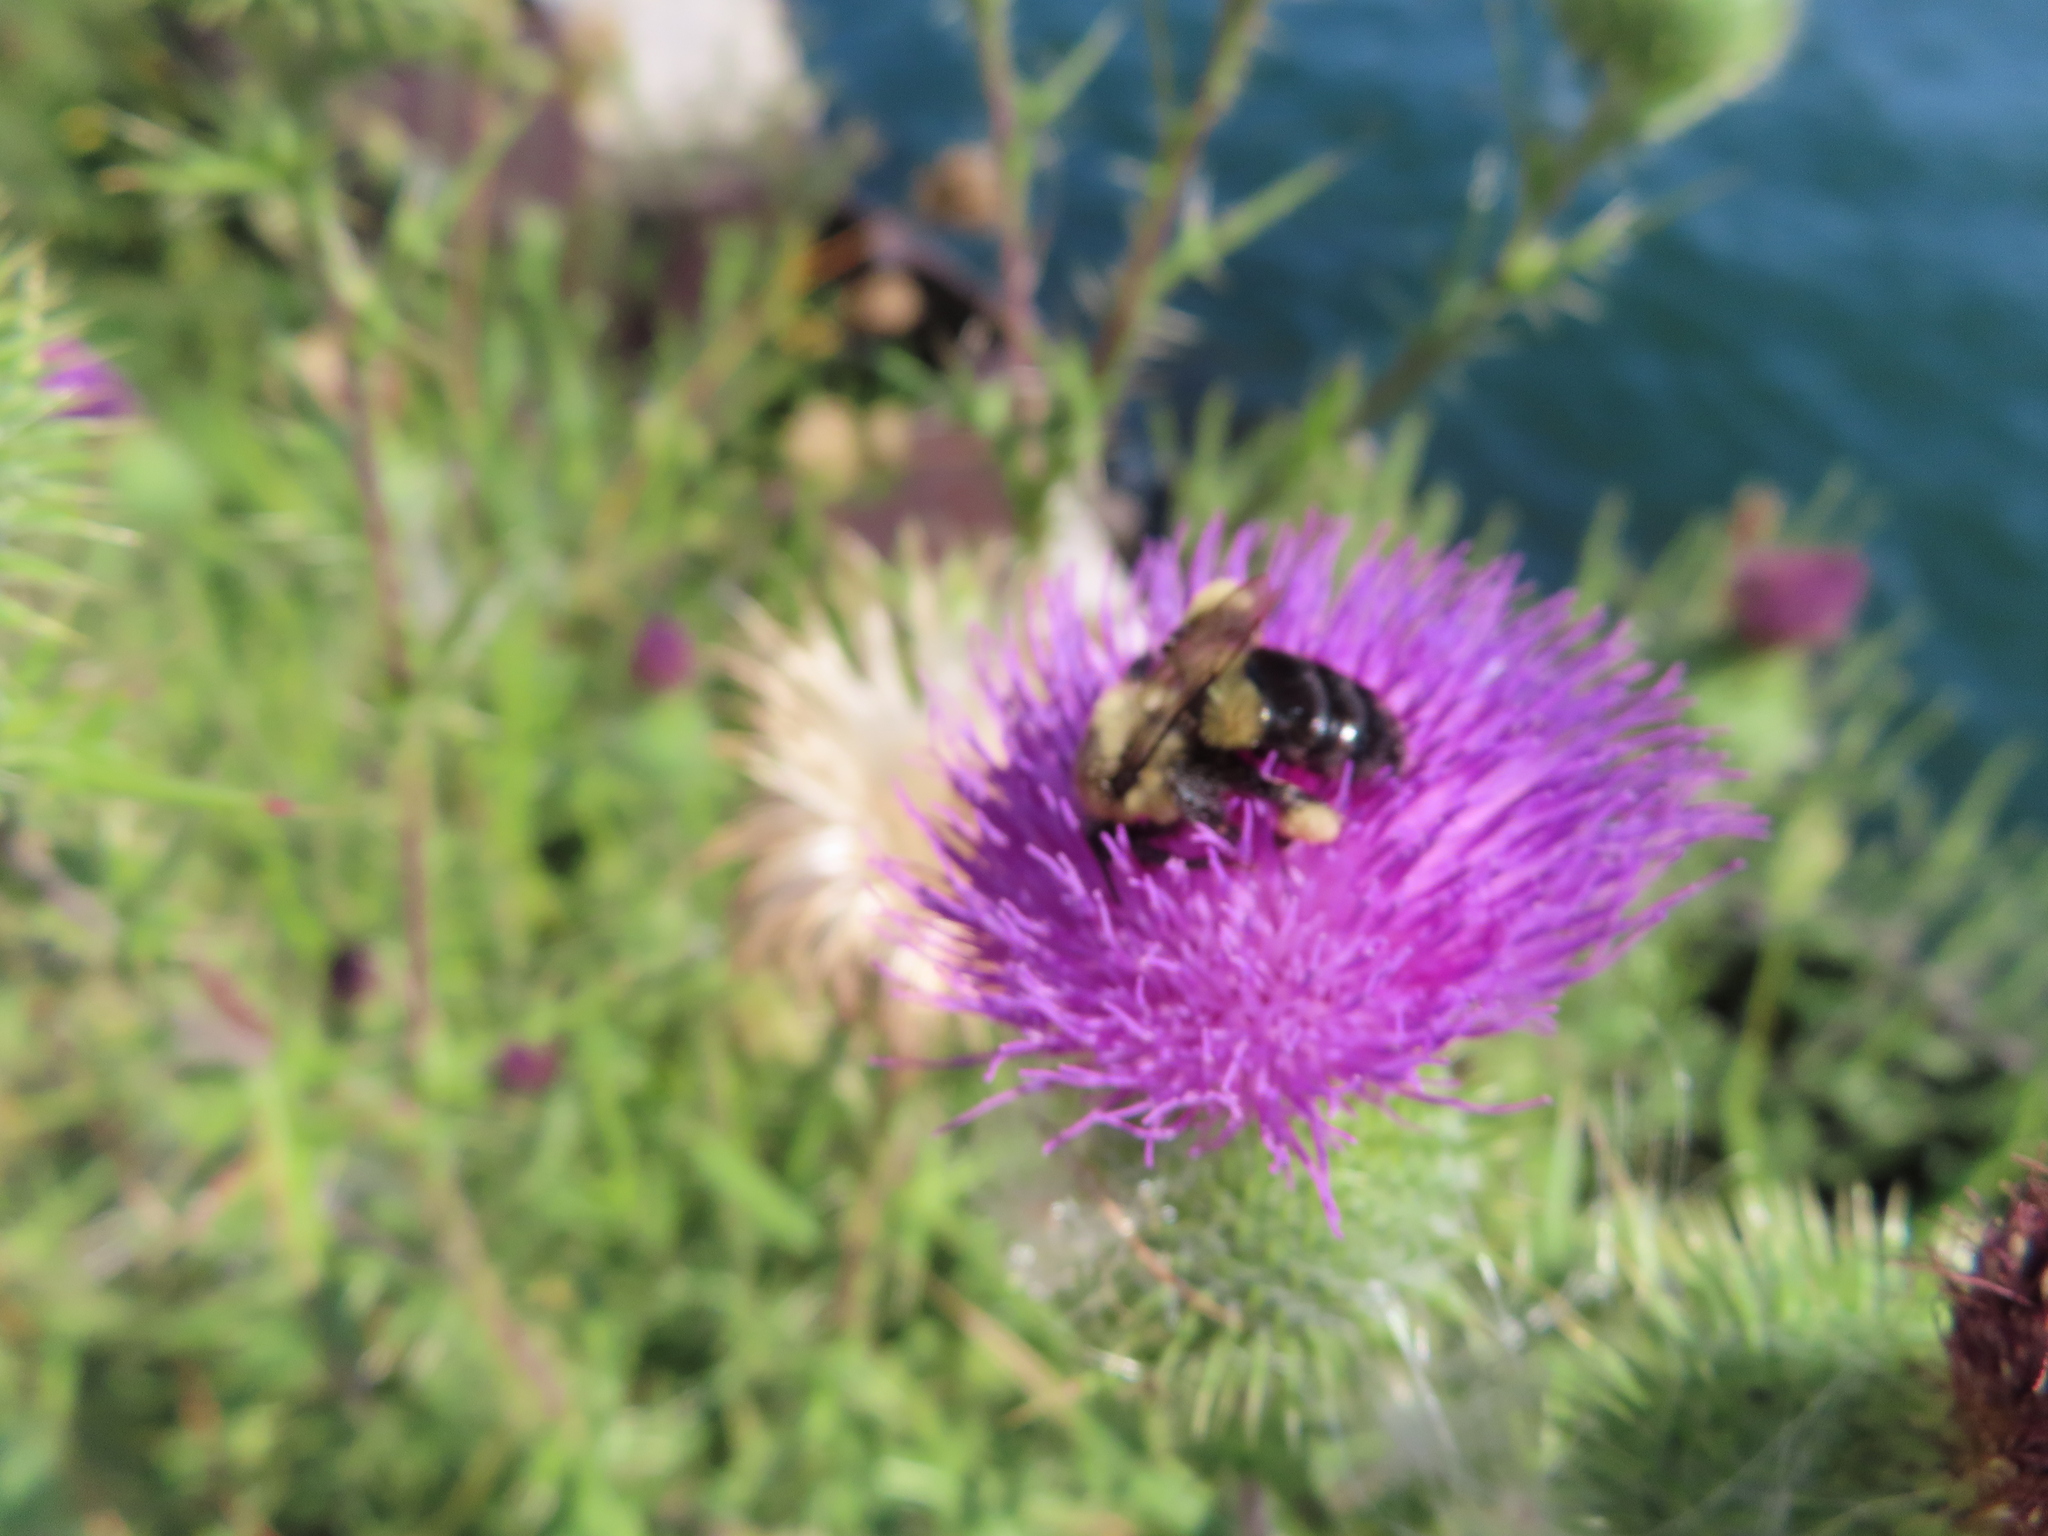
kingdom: Animalia
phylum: Arthropoda
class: Insecta
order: Hymenoptera
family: Apidae
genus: Bombus
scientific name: Bombus impatiens
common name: Common eastern bumble bee
